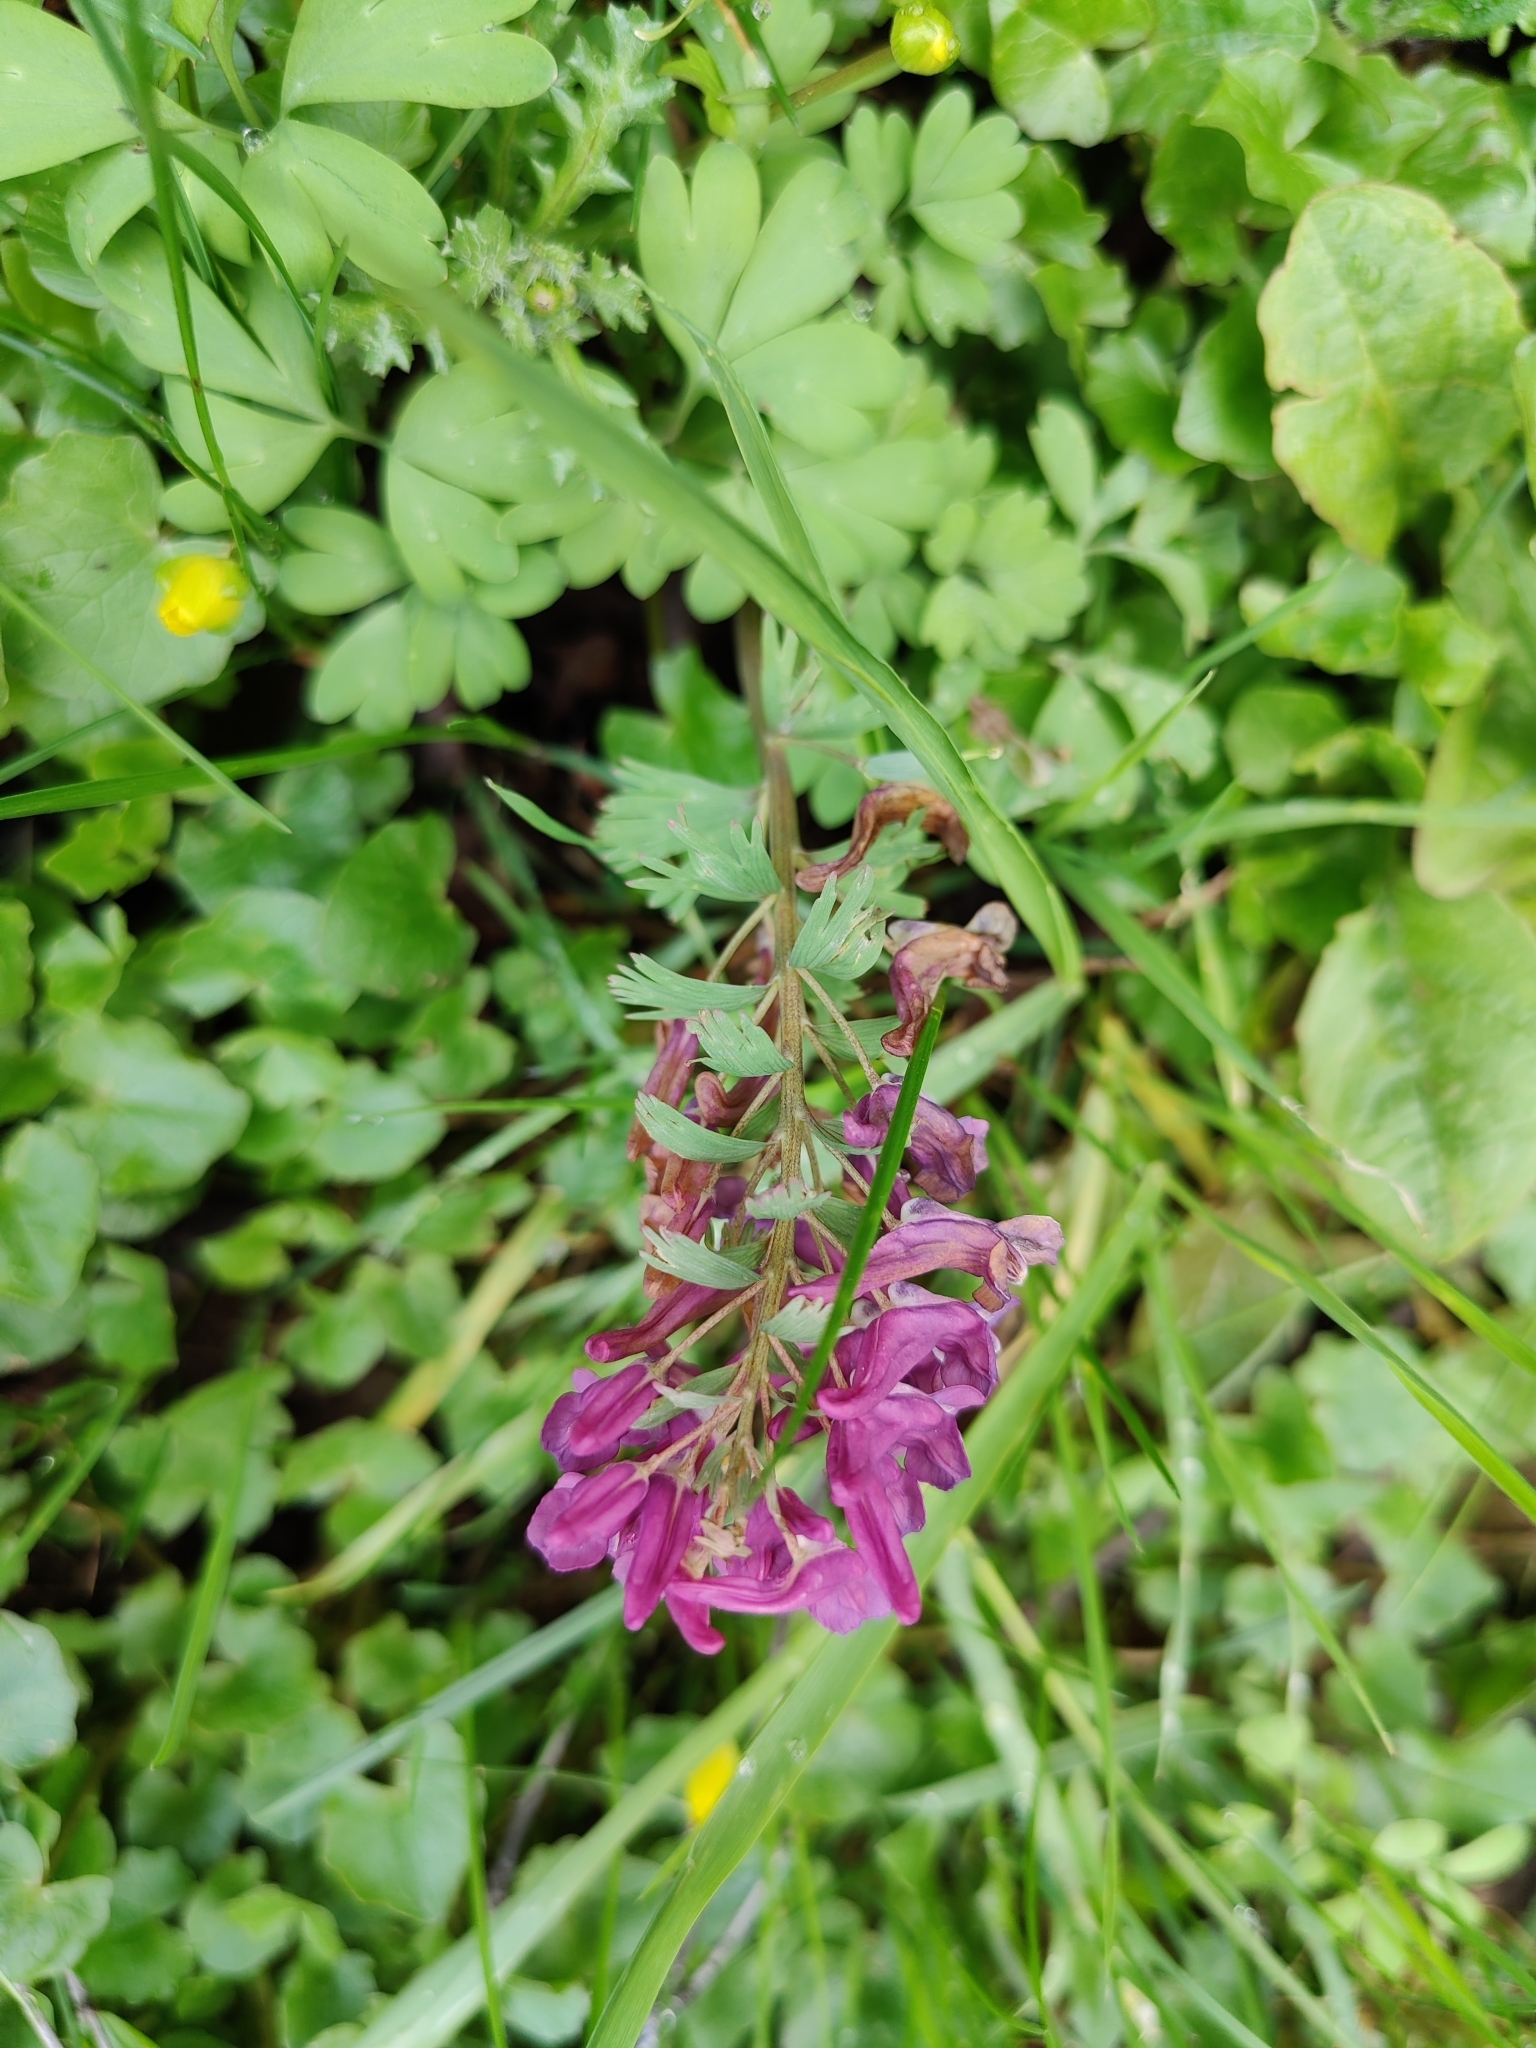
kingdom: Plantae
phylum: Tracheophyta
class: Magnoliopsida
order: Ranunculales
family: Papaveraceae
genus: Corydalis
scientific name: Corydalis solida
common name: Bird-in-a-bush
